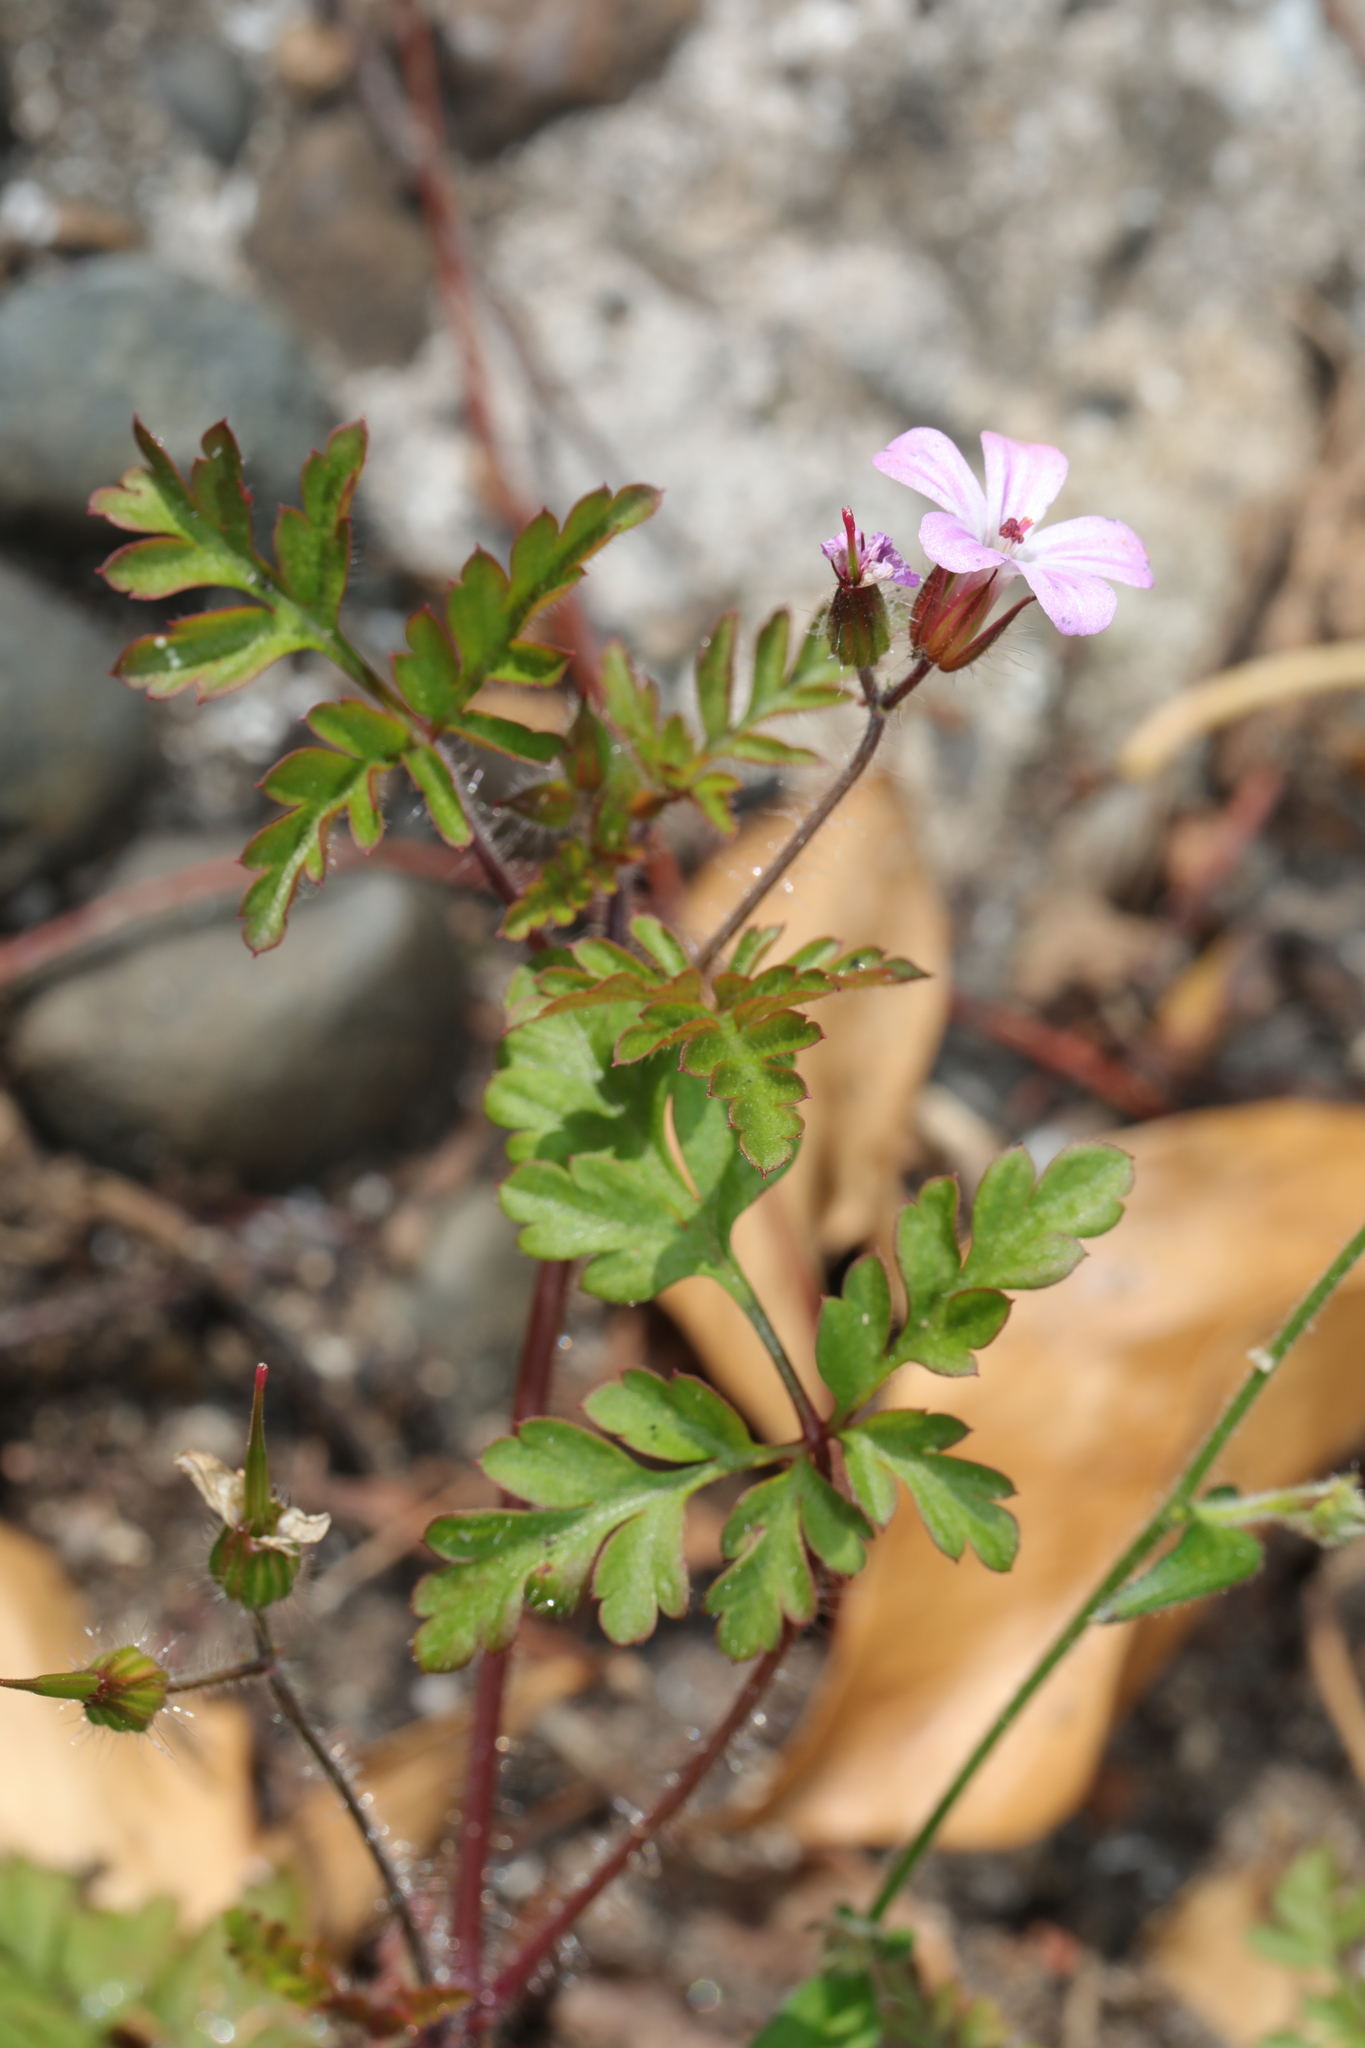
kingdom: Plantae
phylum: Tracheophyta
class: Magnoliopsida
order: Geraniales
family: Geraniaceae
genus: Geranium
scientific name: Geranium robertianum
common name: Herb-robert
